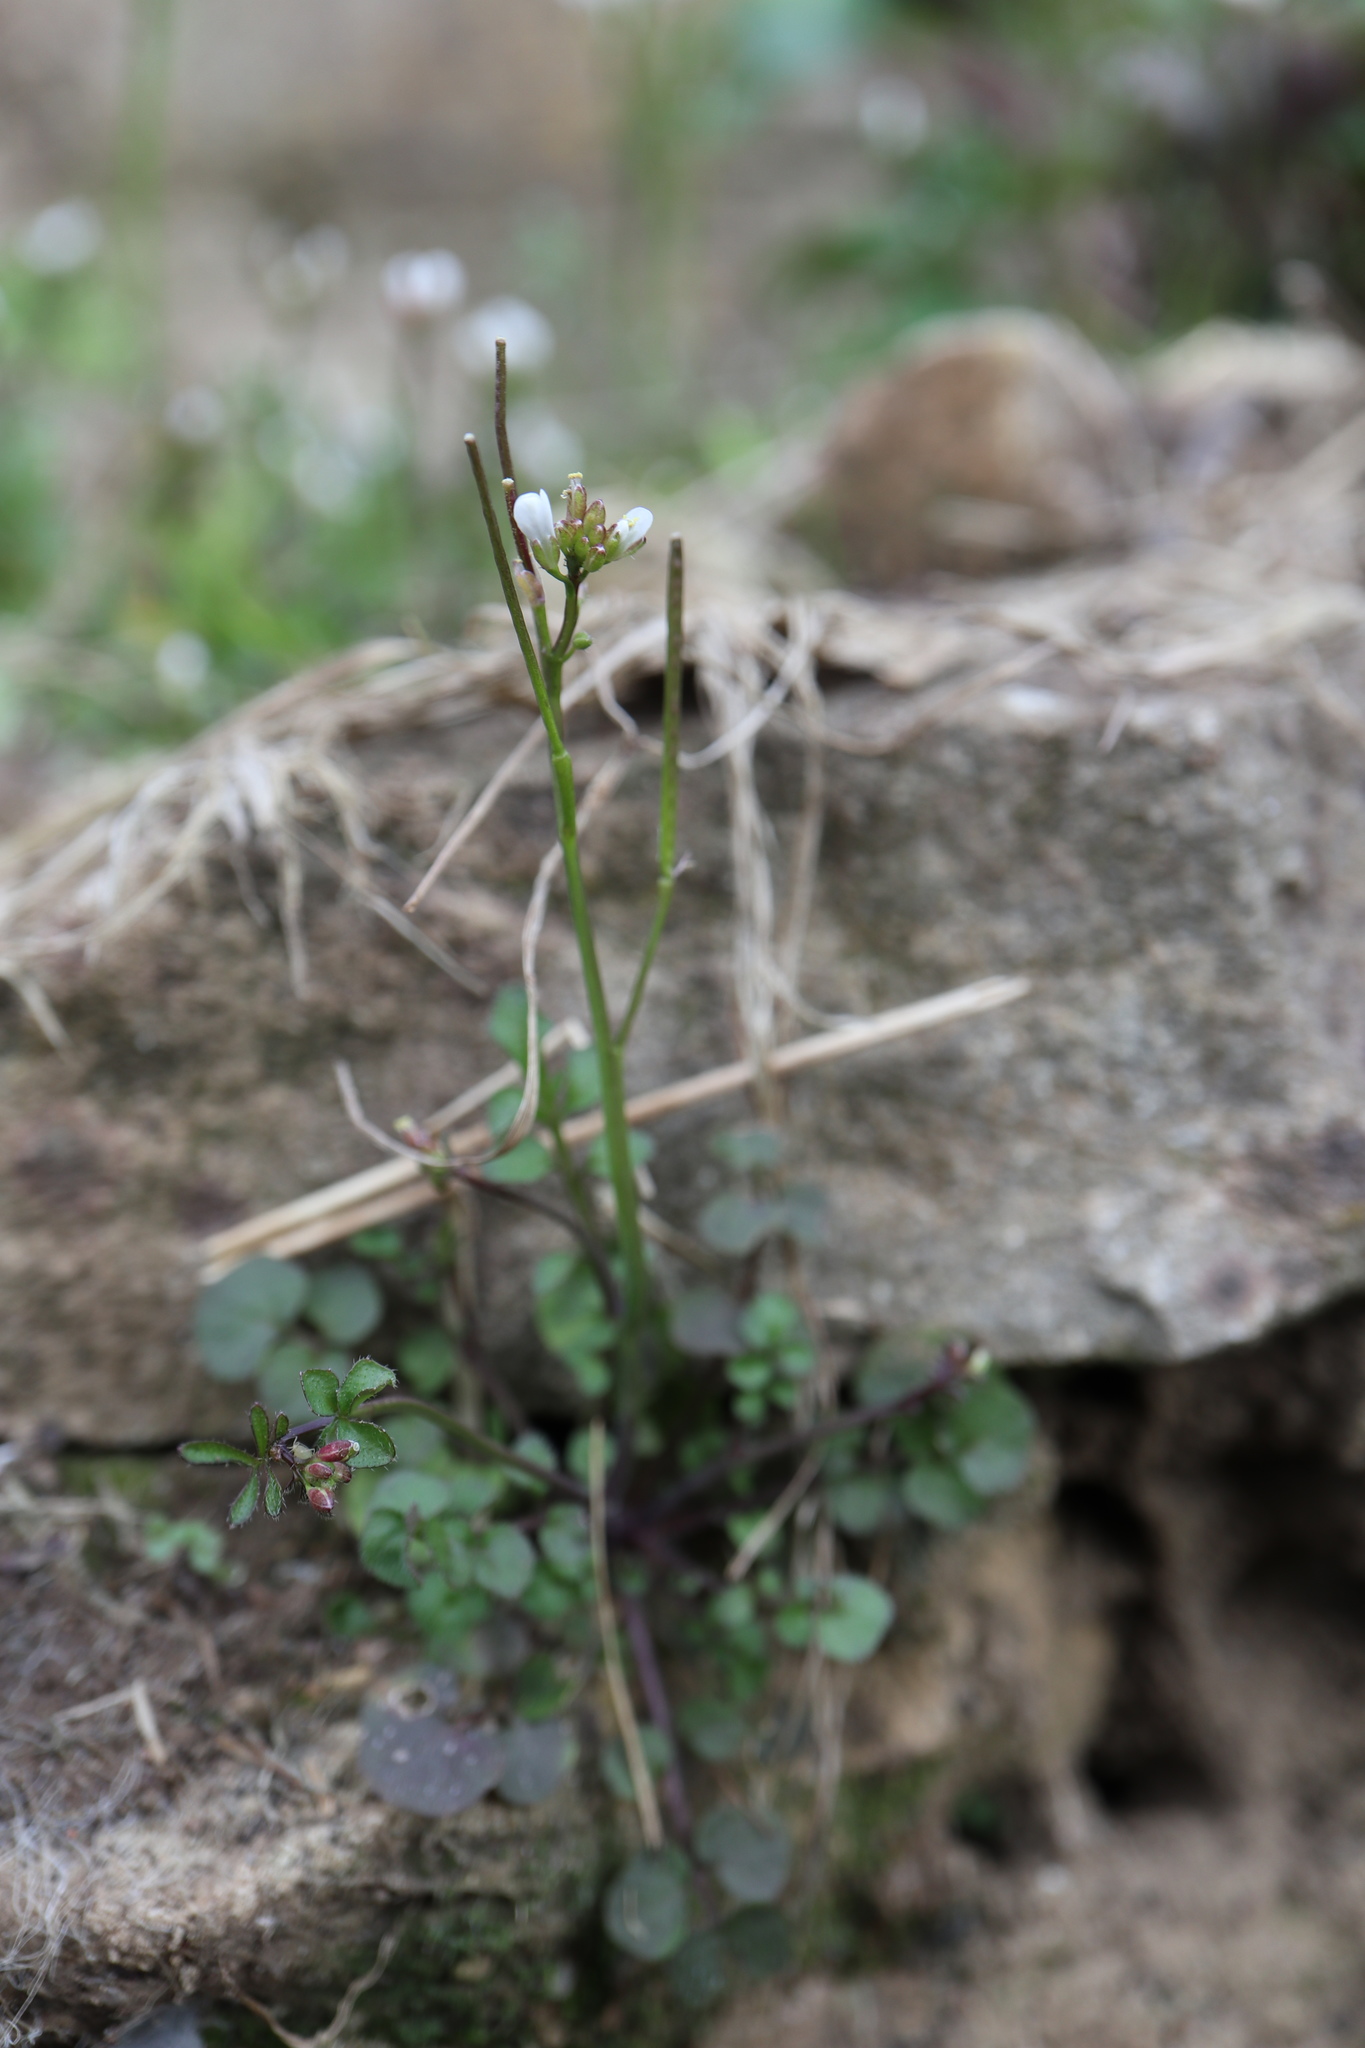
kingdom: Plantae
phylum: Tracheophyta
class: Magnoliopsida
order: Brassicales
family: Brassicaceae
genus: Cardamine
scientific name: Cardamine hirsuta
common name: Hairy bittercress
